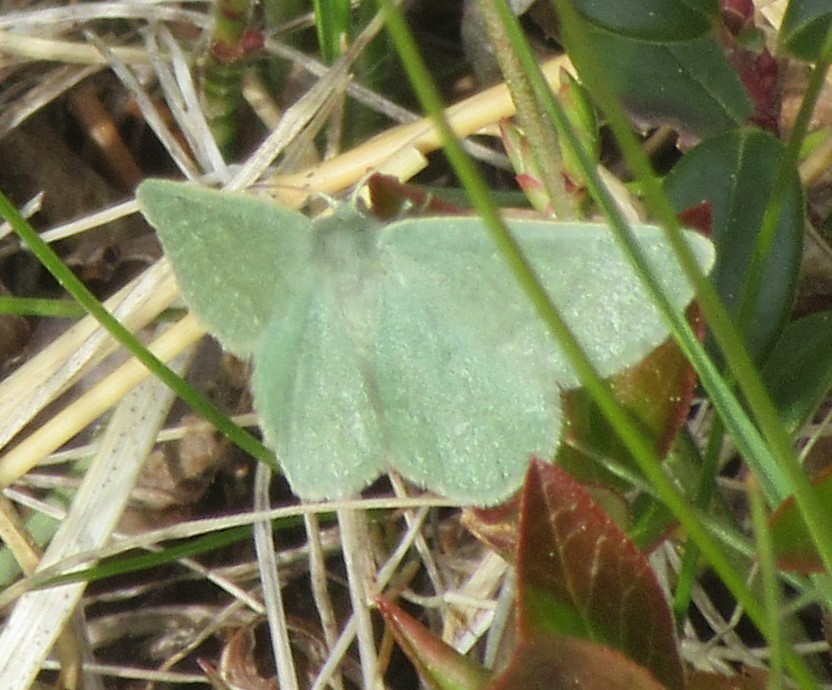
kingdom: Animalia
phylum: Arthropoda
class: Insecta
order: Lepidoptera
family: Geometridae
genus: Mesothea
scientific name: Mesothea incertata
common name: Day emerald moth
